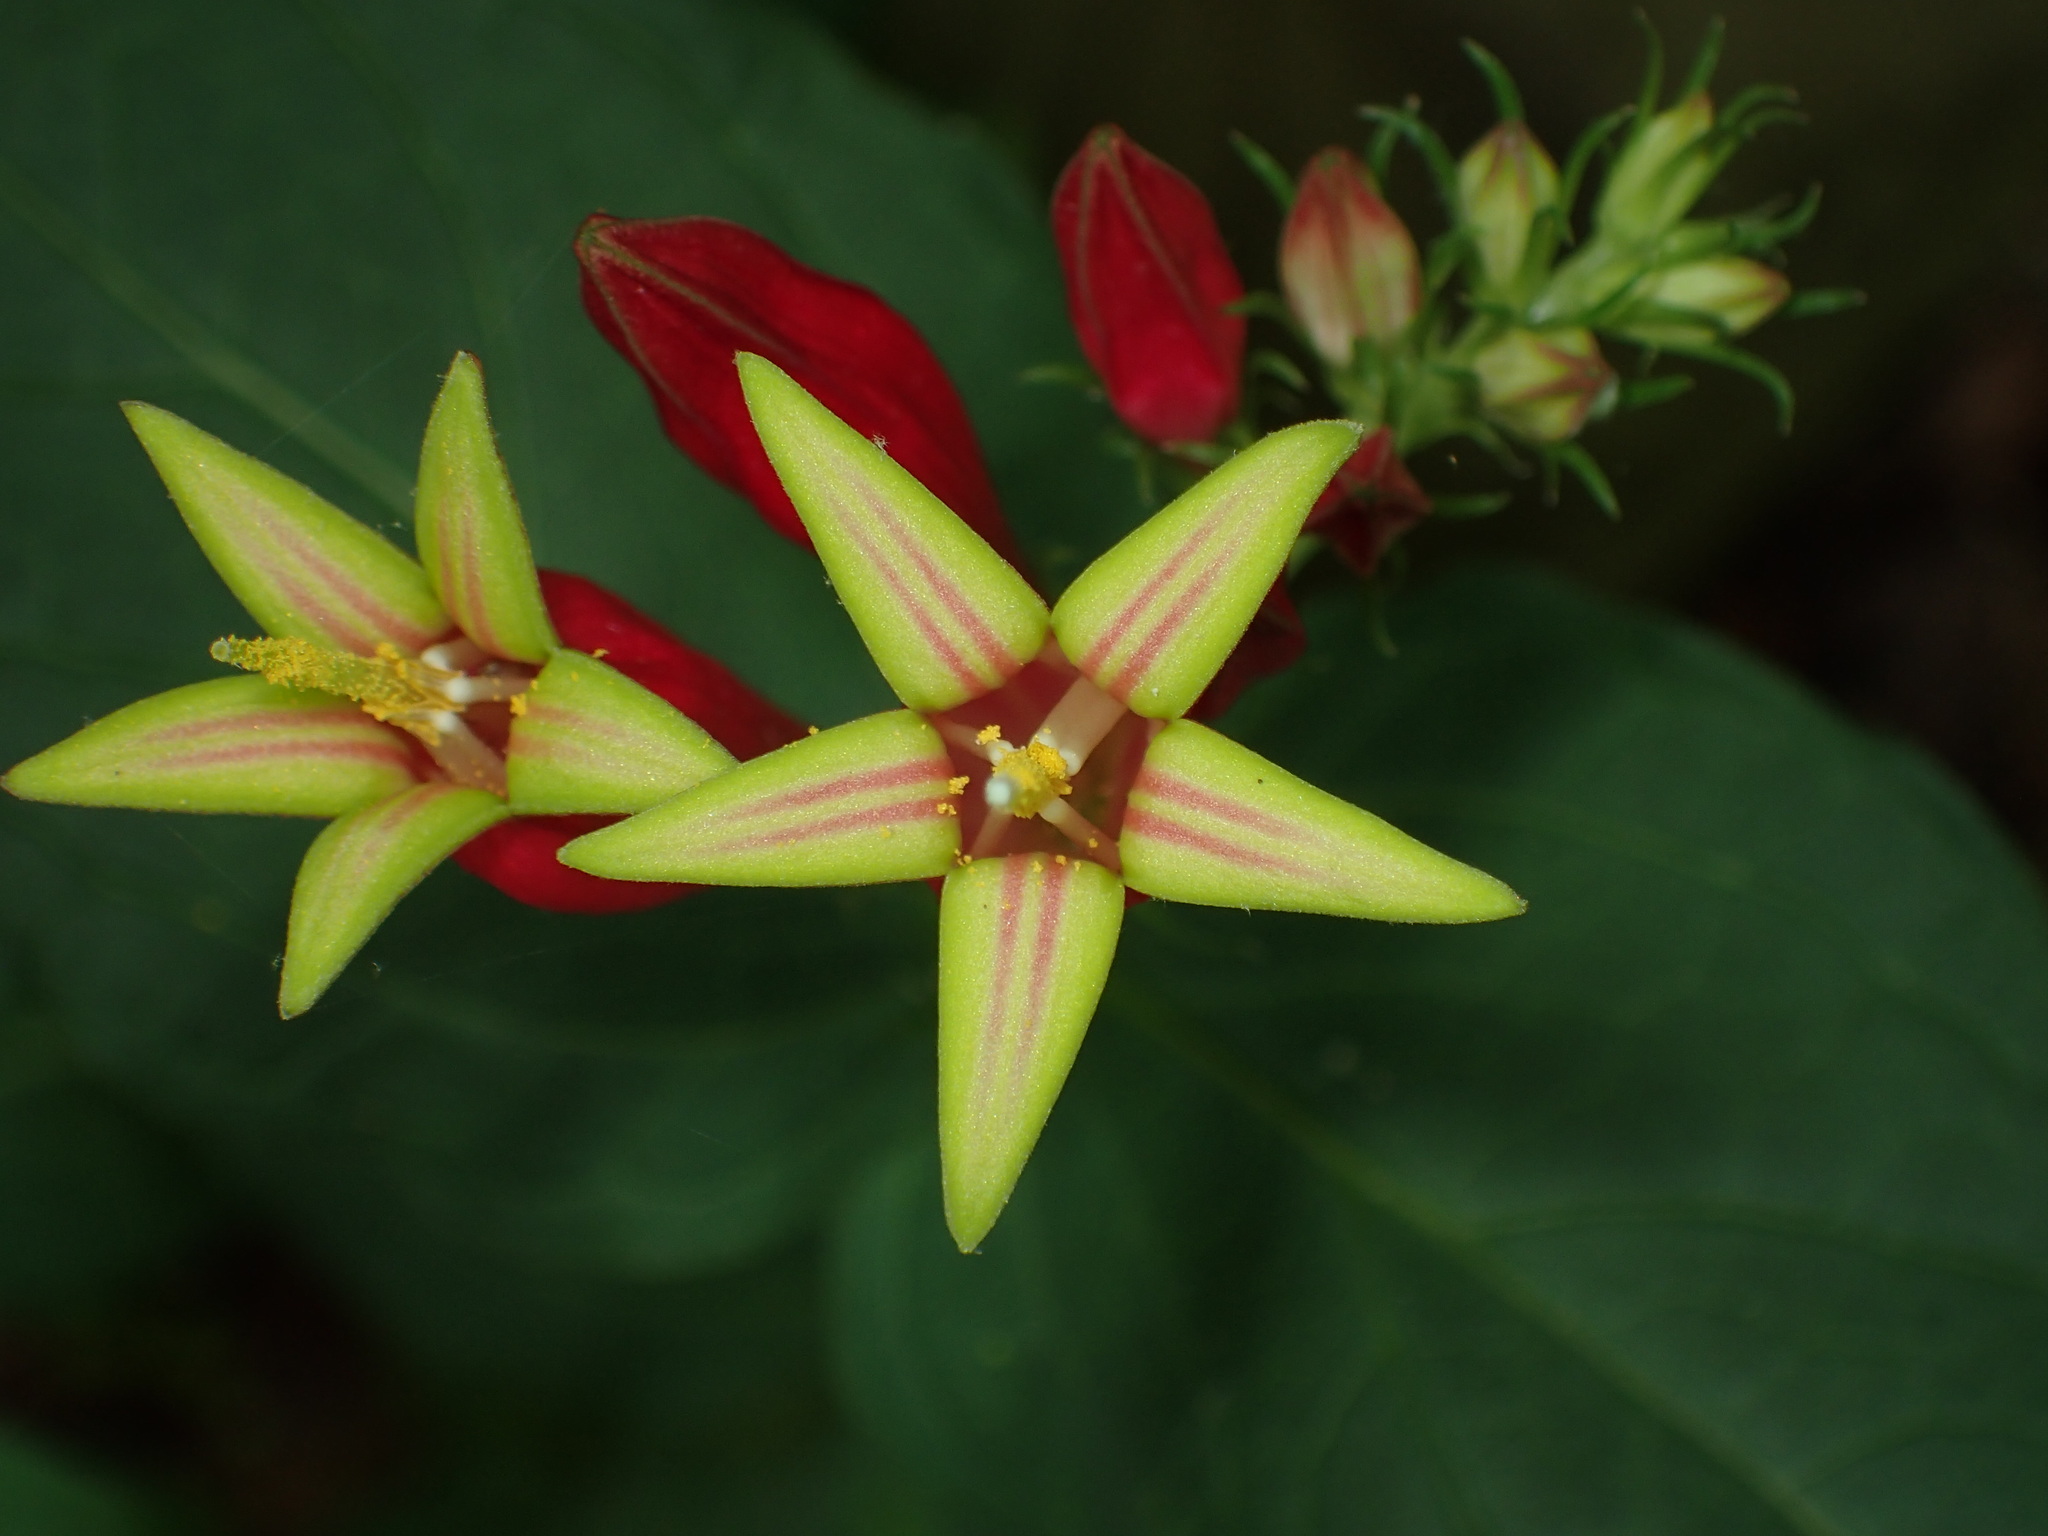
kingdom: Plantae
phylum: Tracheophyta
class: Magnoliopsida
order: Gentianales
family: Loganiaceae
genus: Spigelia
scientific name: Spigelia marilandica
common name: Indian-pink
